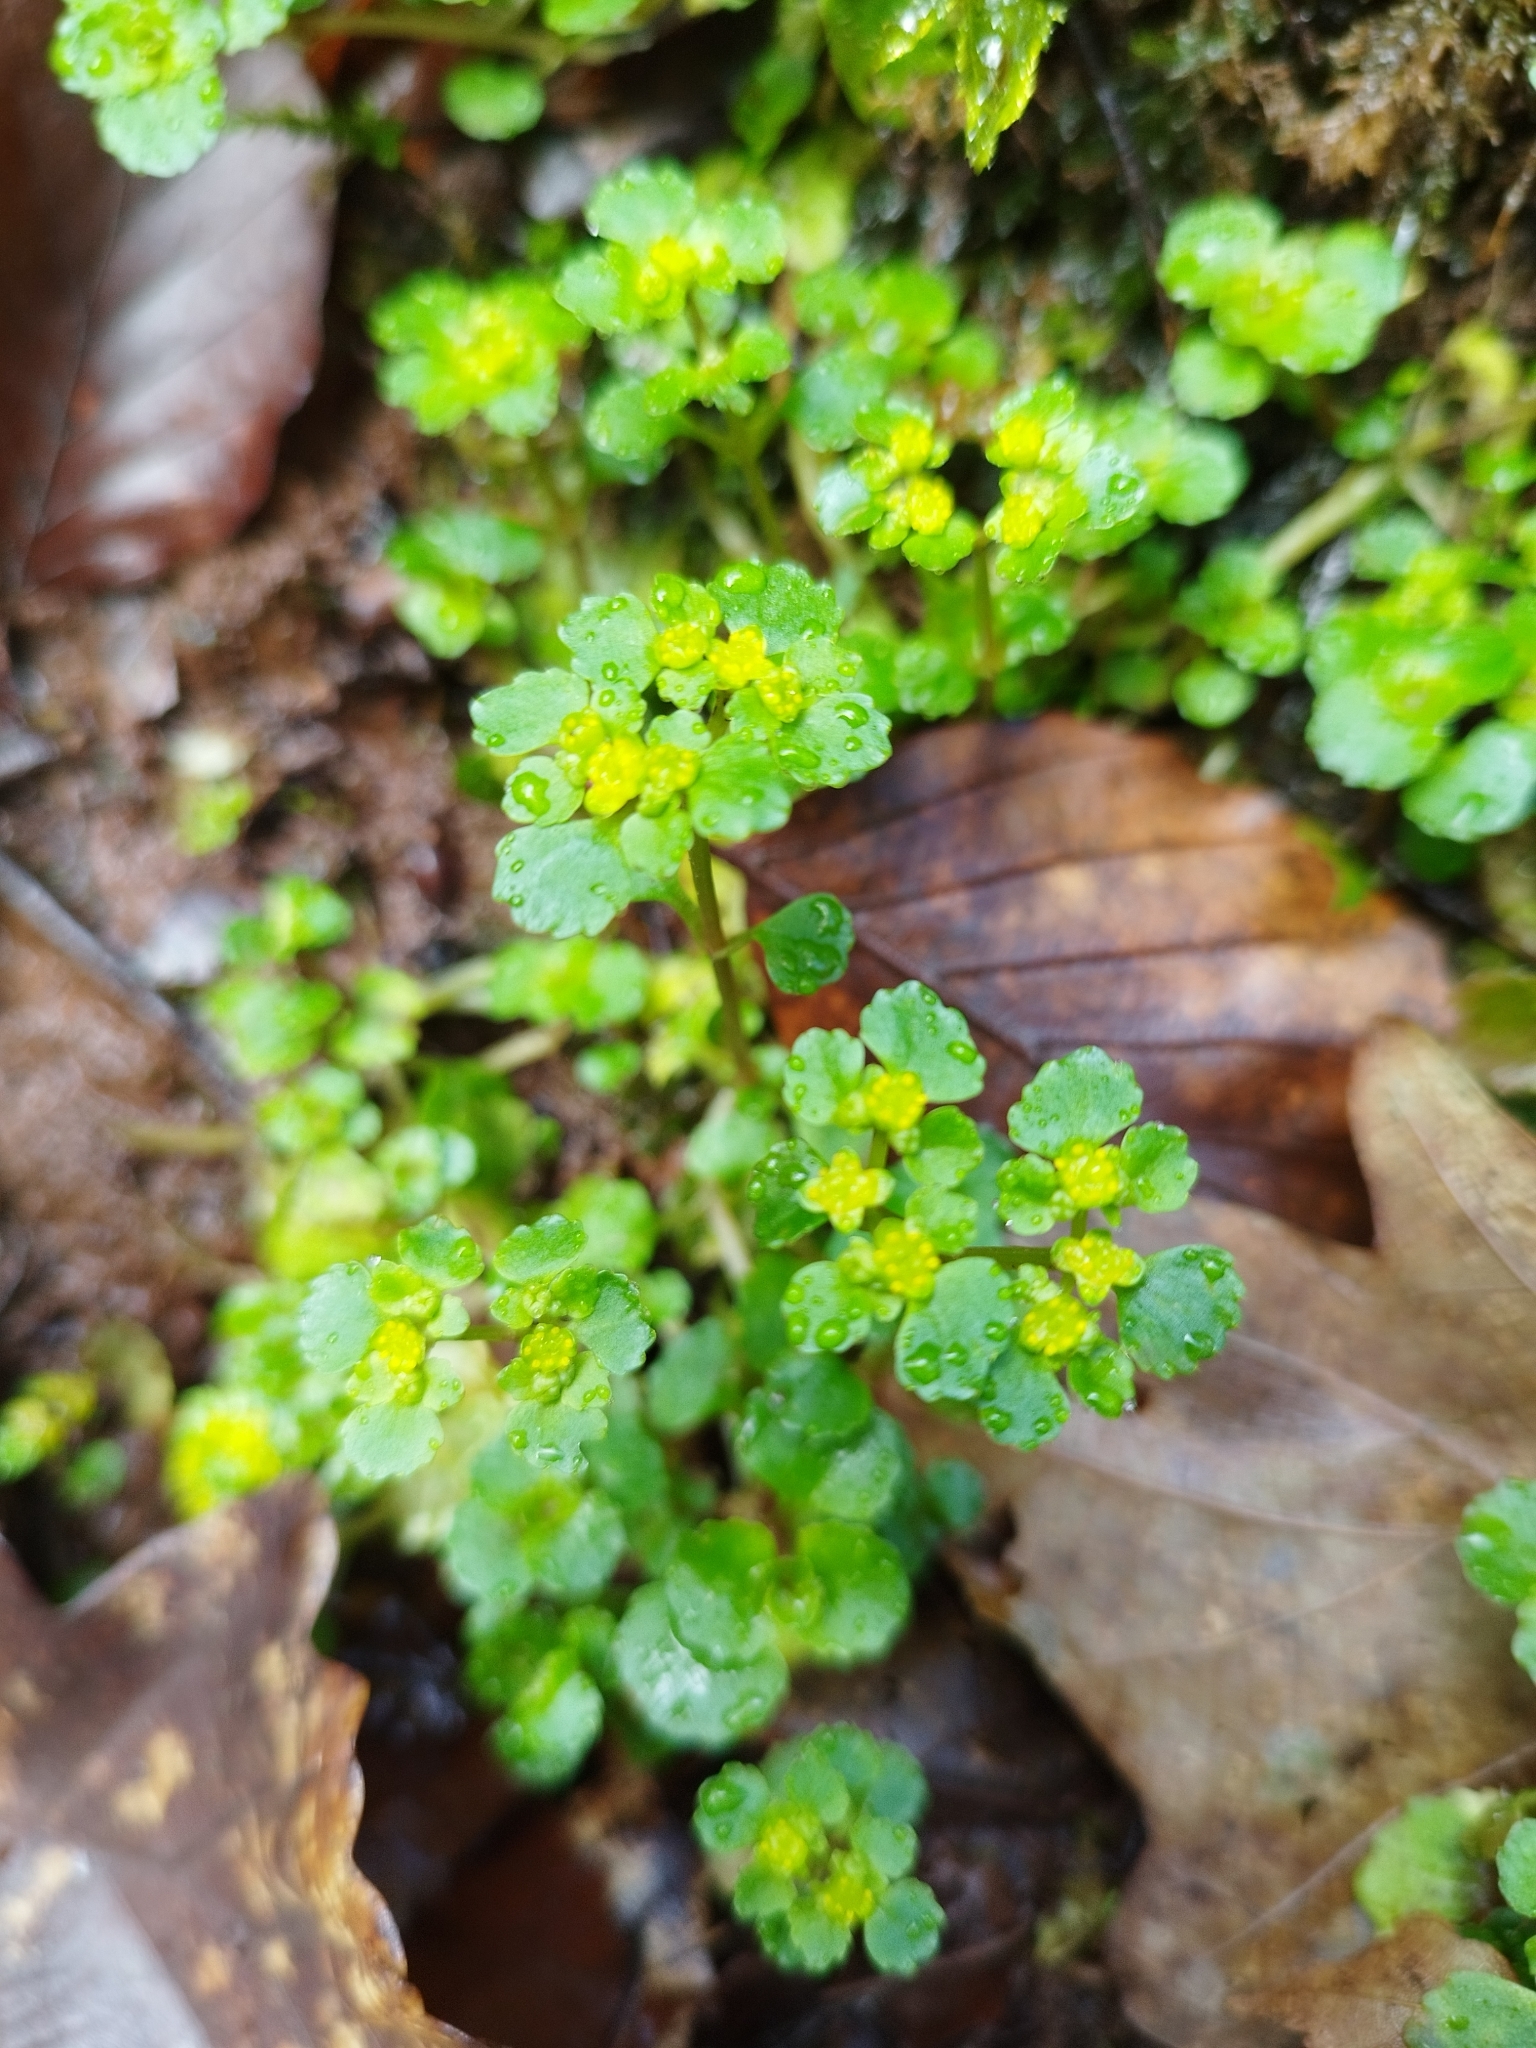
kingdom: Plantae
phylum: Tracheophyta
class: Magnoliopsida
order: Saxifragales
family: Saxifragaceae
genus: Chrysosplenium
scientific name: Chrysosplenium oppositifolium
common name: Opposite-leaved golden-saxifrage
